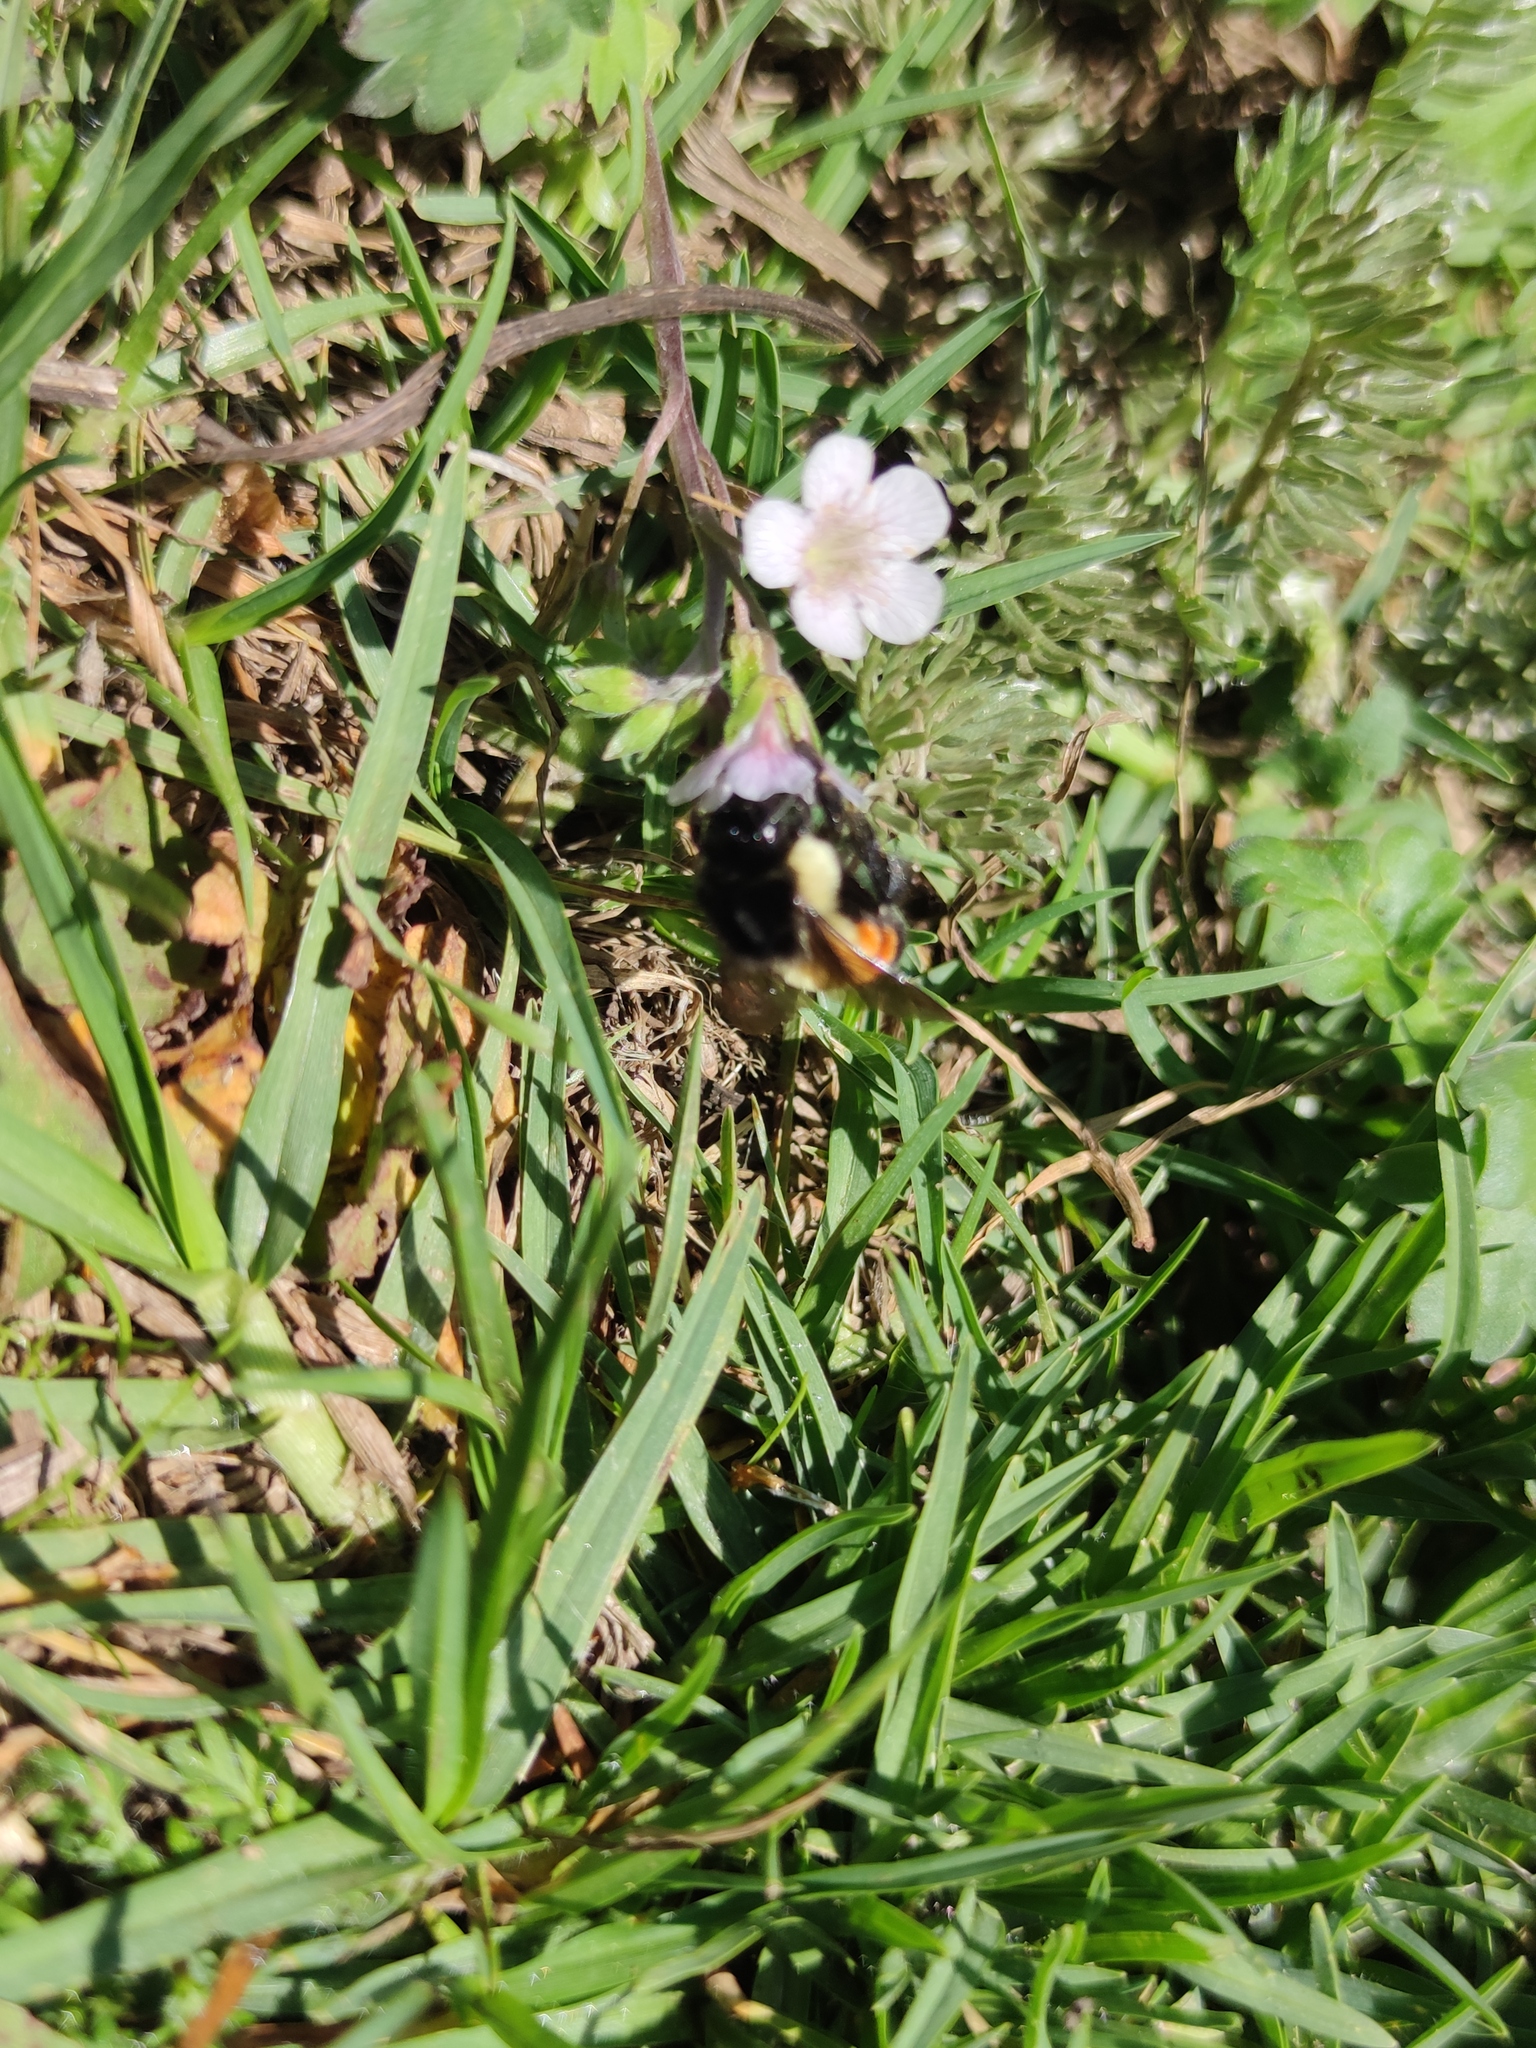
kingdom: Animalia
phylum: Arthropoda
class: Insecta
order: Hymenoptera
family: Apidae
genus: Bombus
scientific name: Bombus ephippiatus
